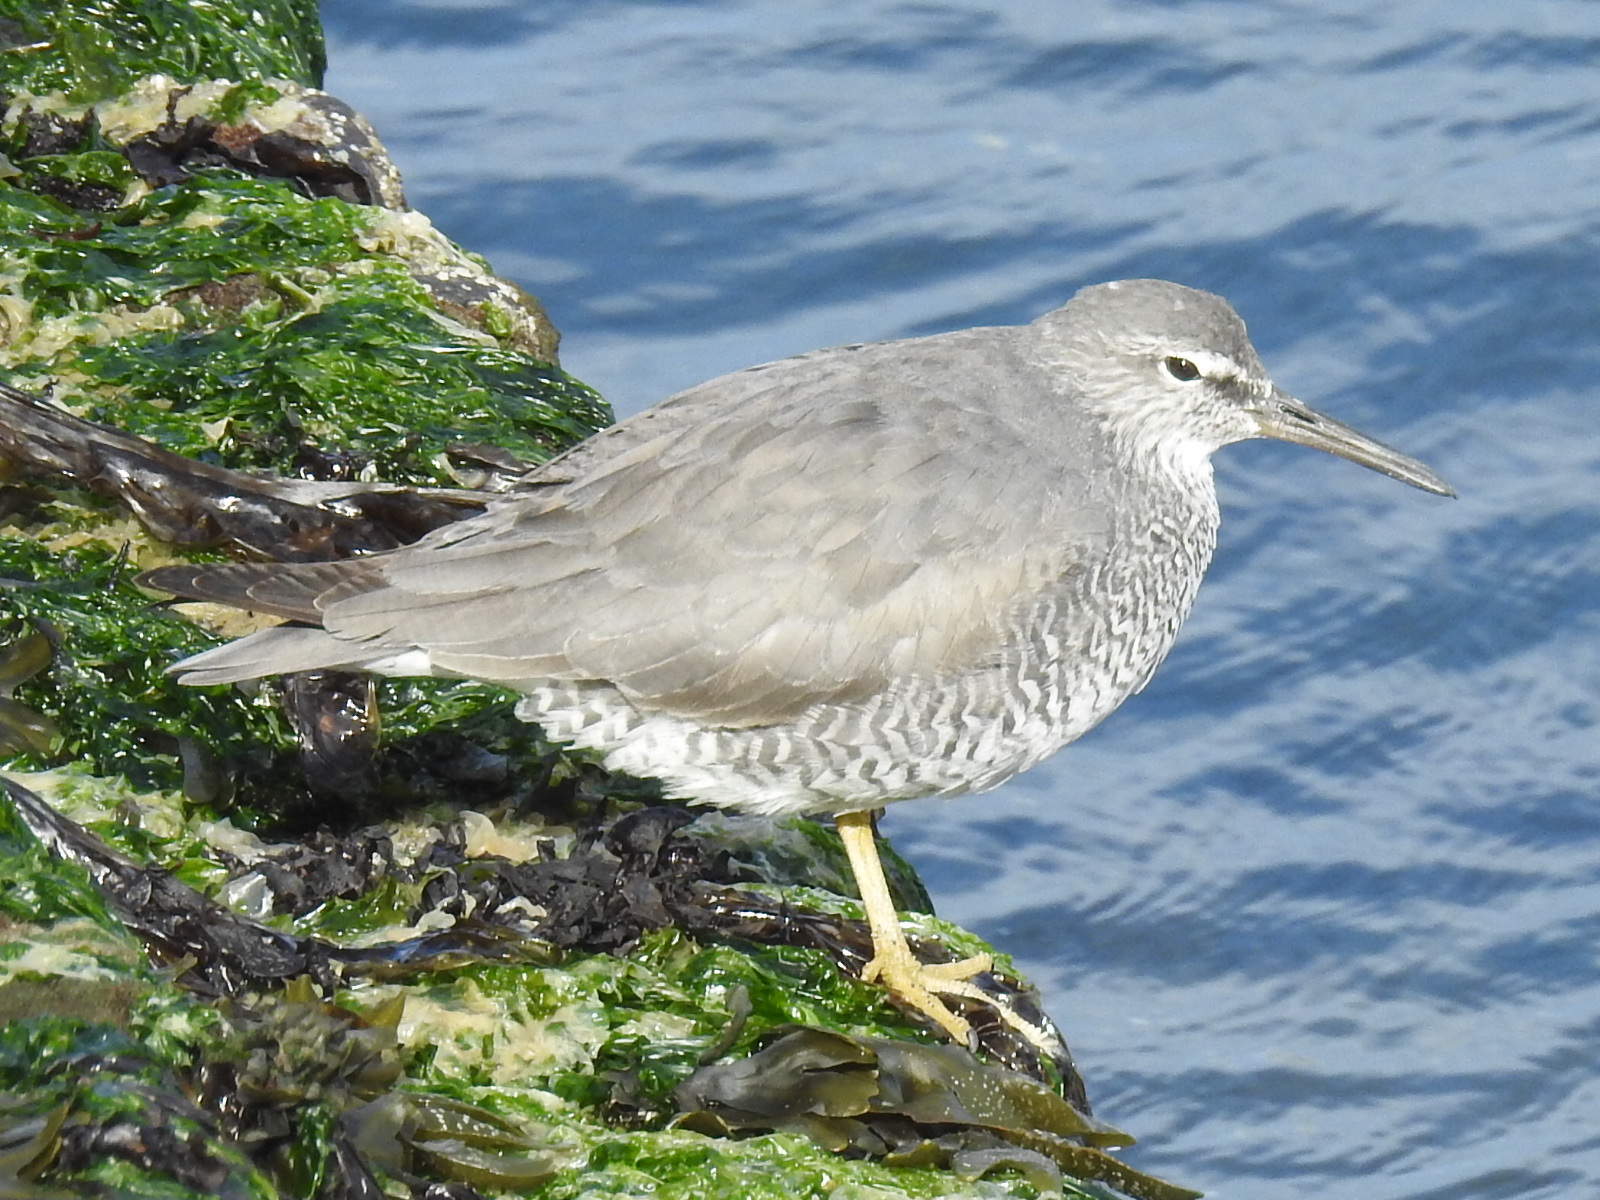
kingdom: Animalia
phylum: Chordata
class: Aves
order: Charadriiformes
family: Scolopacidae
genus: Tringa
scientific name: Tringa incana
